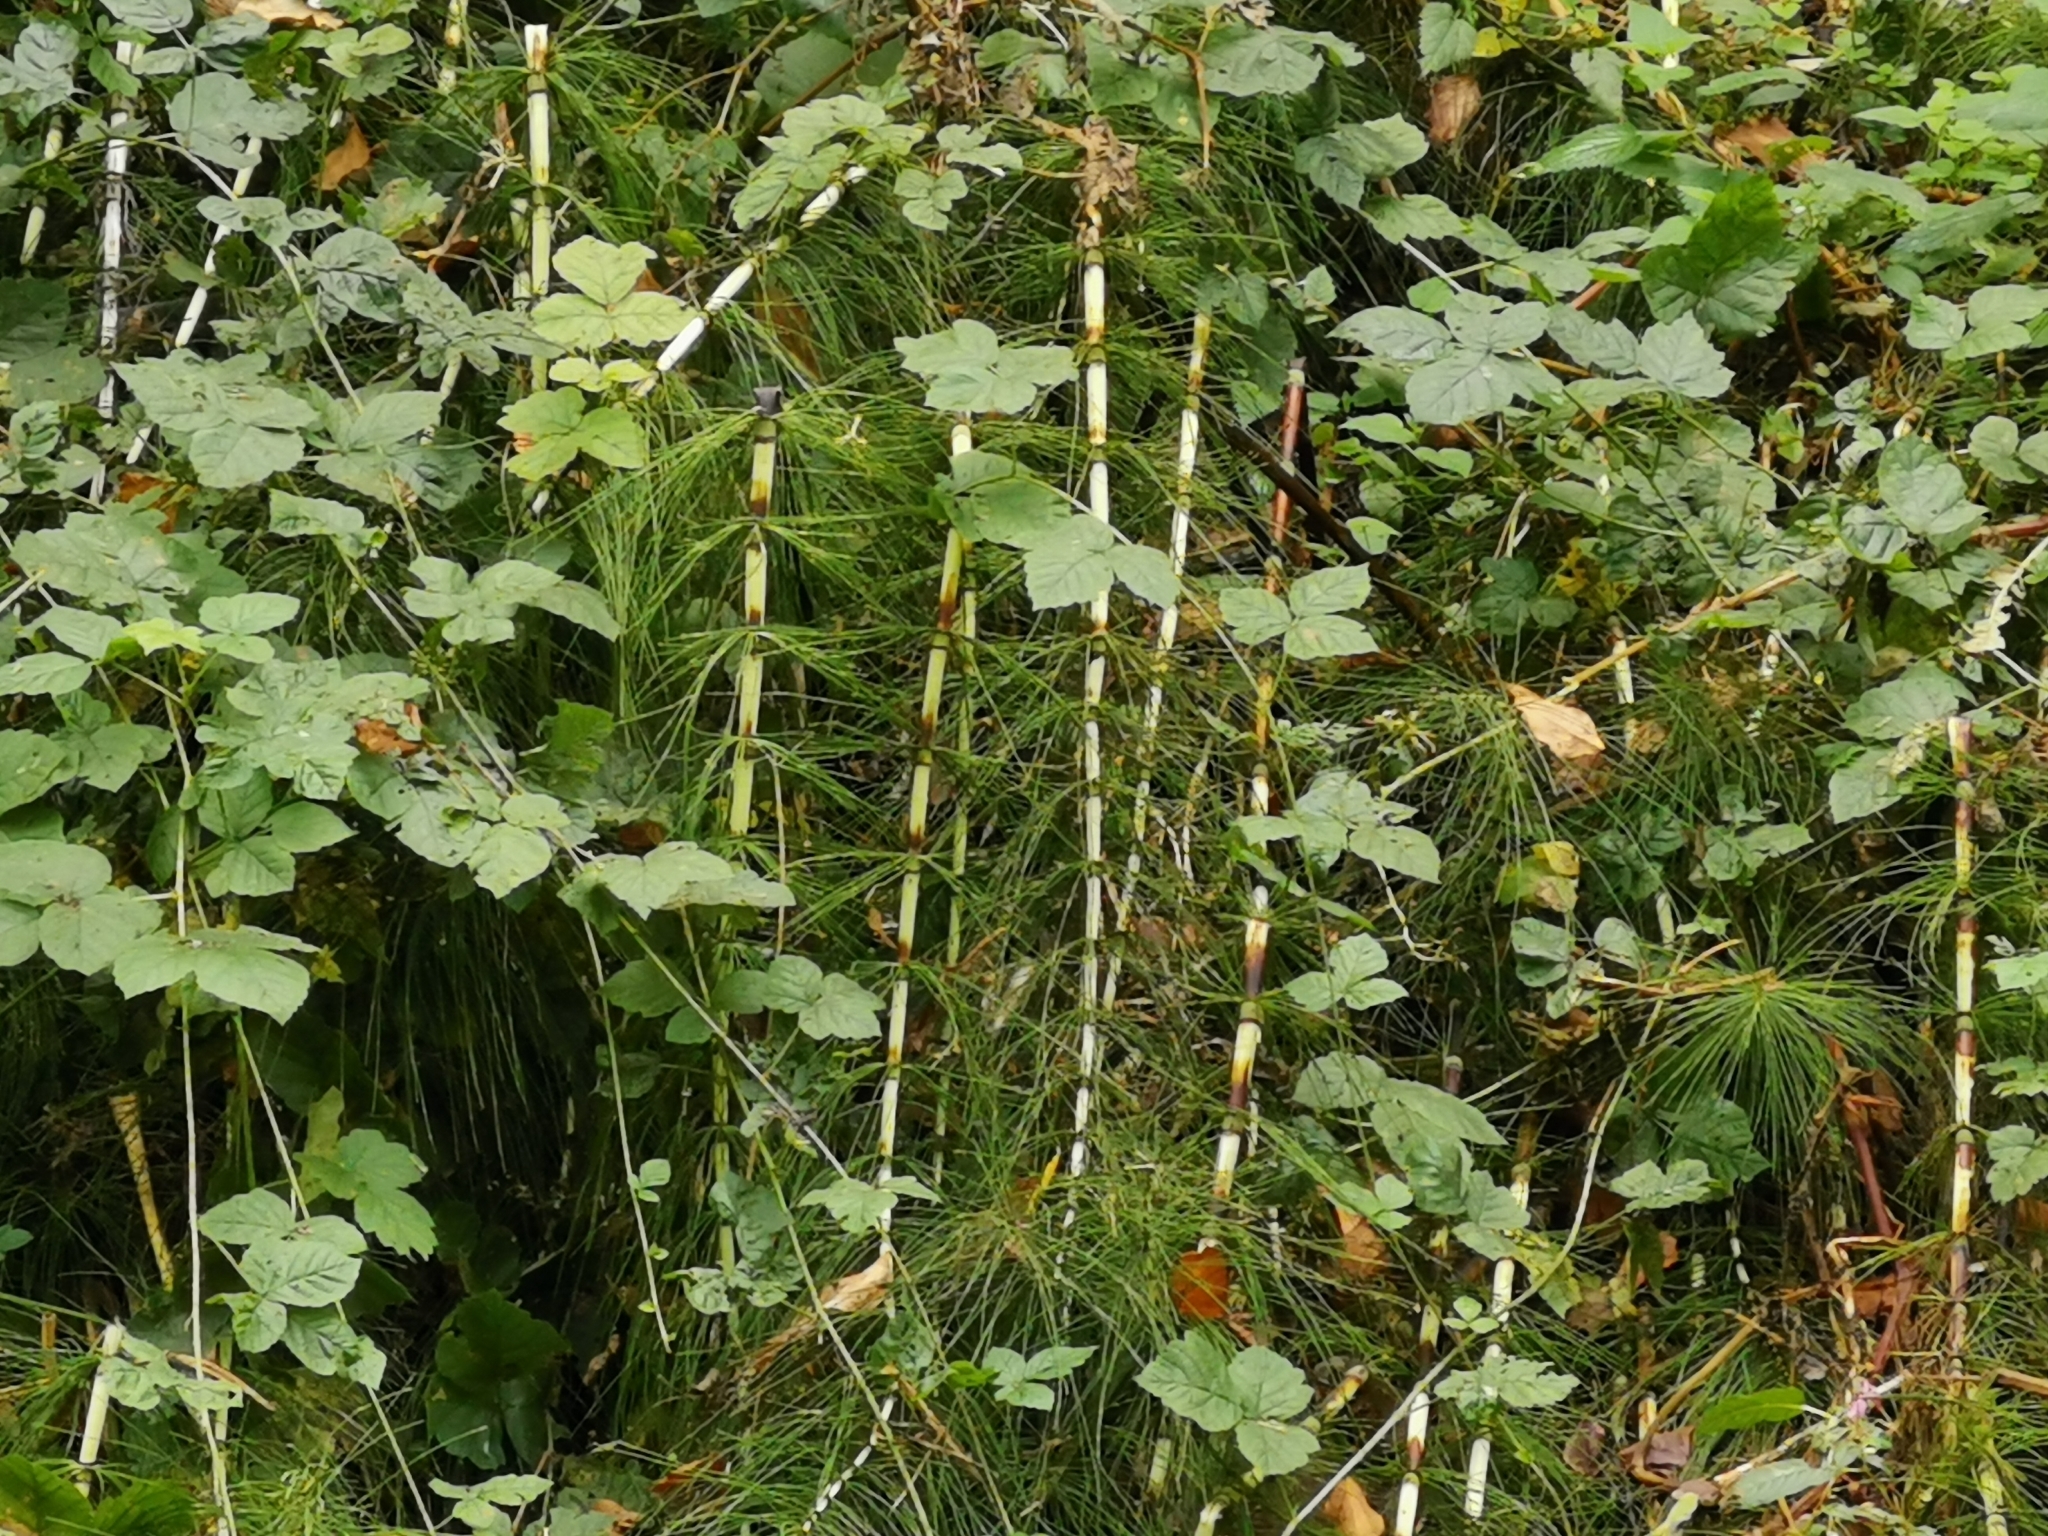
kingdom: Plantae
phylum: Tracheophyta
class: Polypodiopsida
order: Equisetales
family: Equisetaceae
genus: Equisetum
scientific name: Equisetum telmateia
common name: Great horsetail
